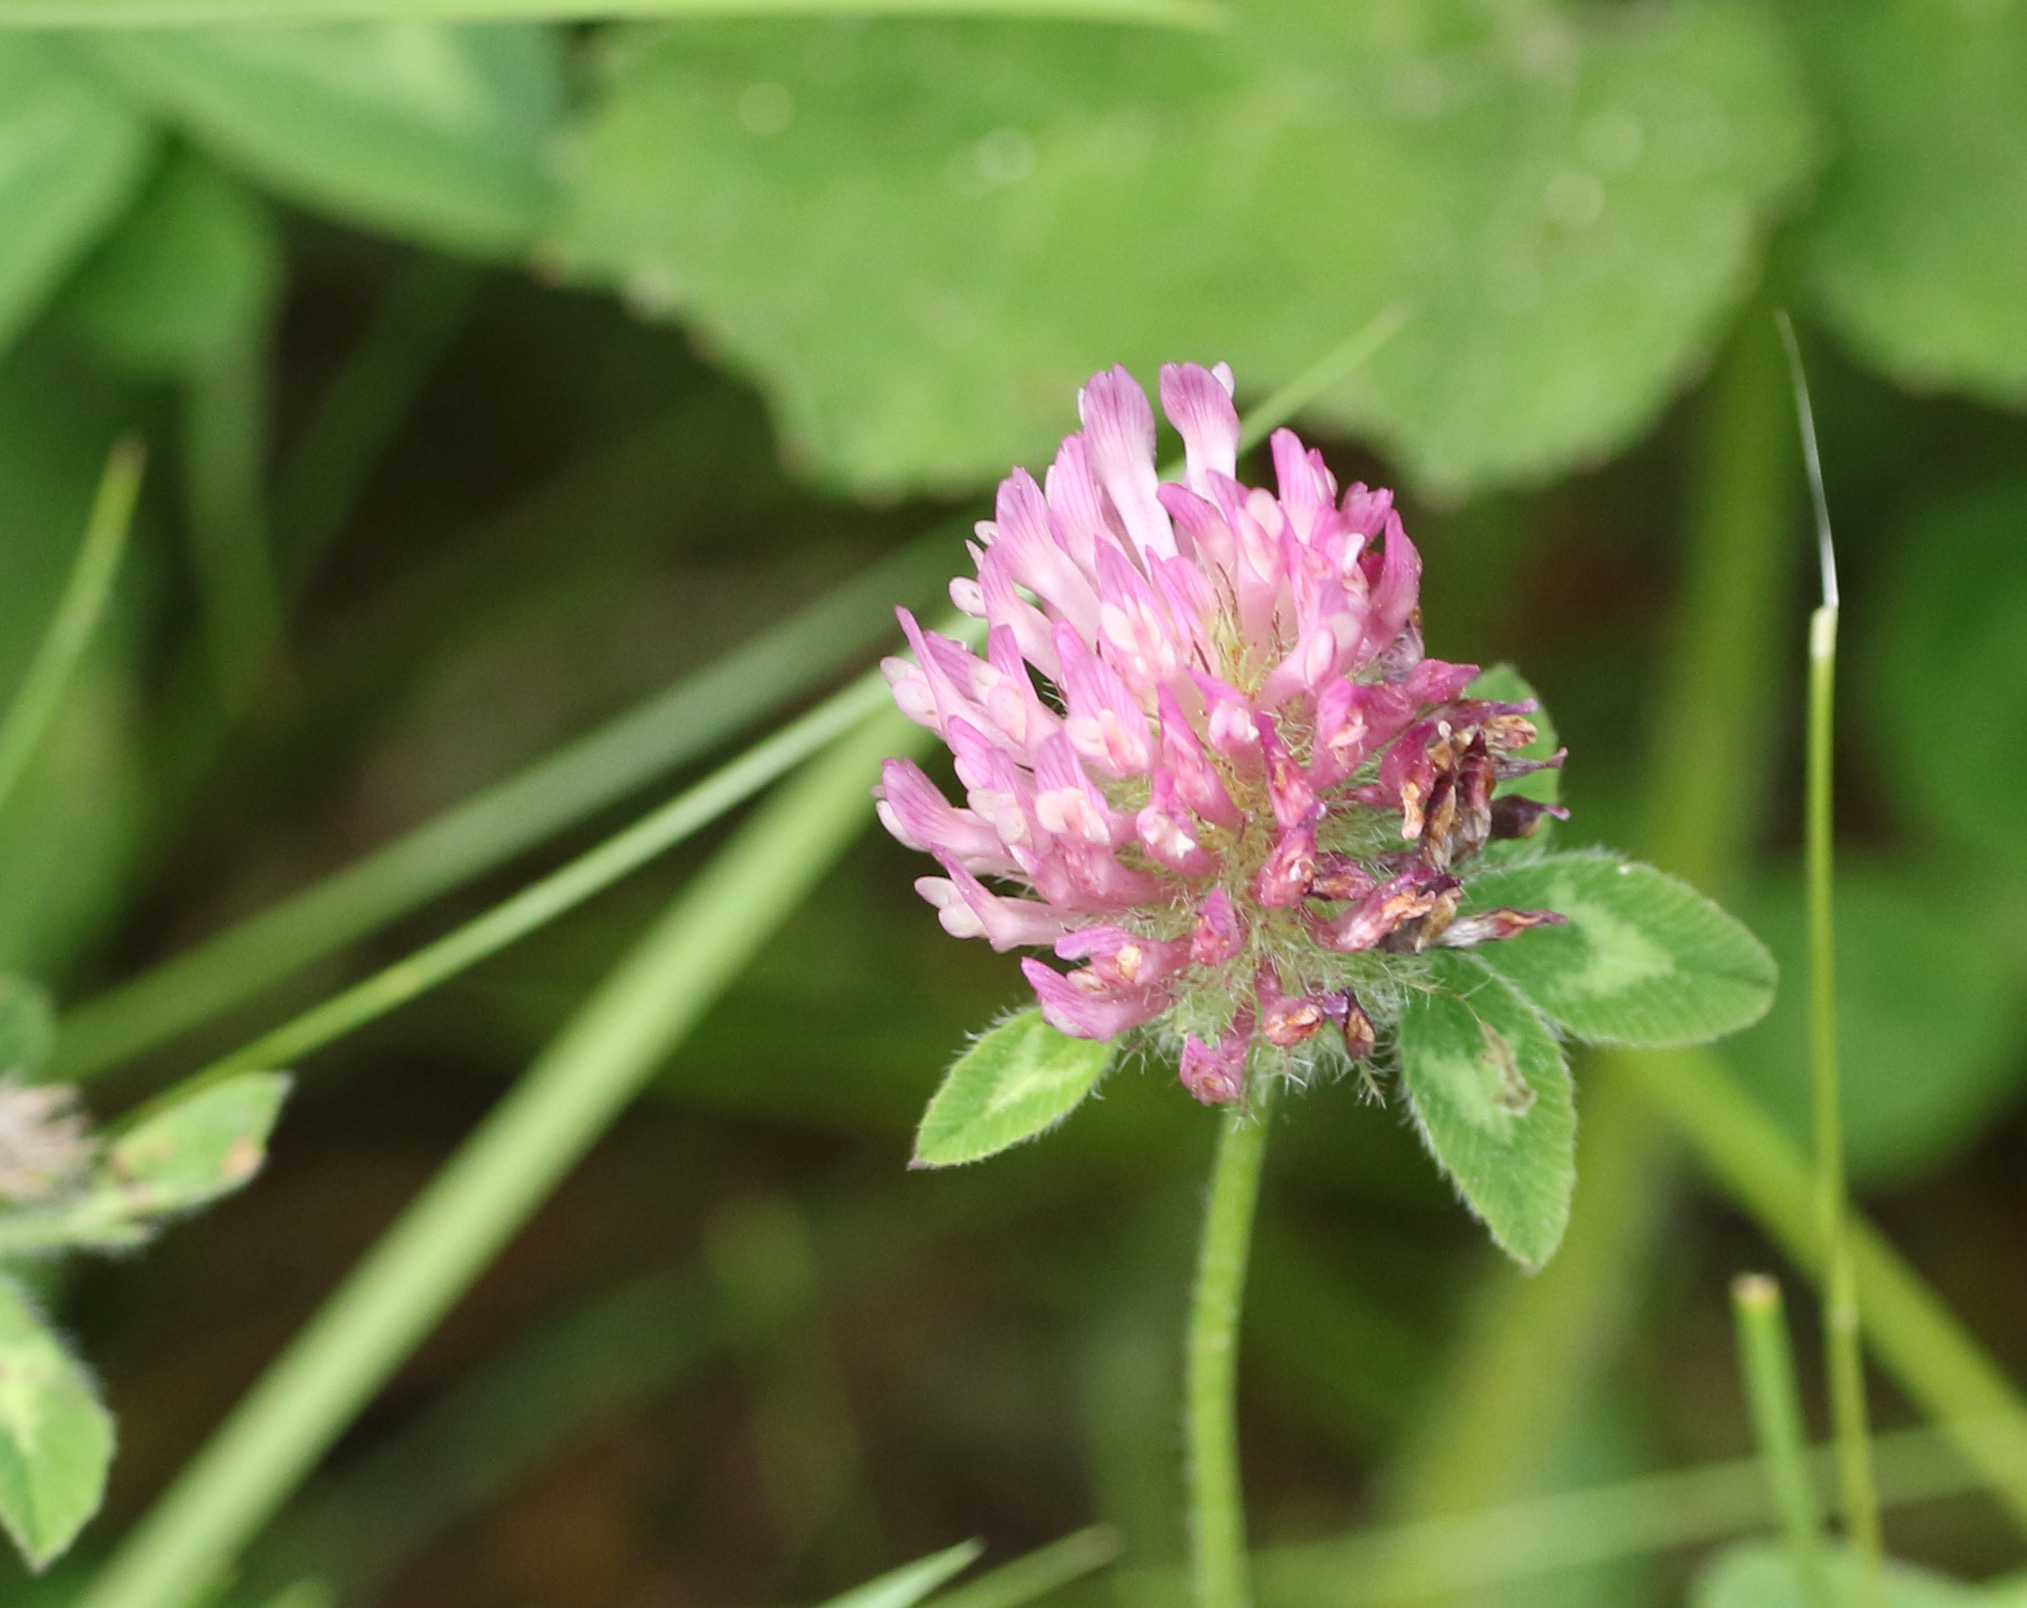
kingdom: Plantae
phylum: Tracheophyta
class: Magnoliopsida
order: Fabales
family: Fabaceae
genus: Trifolium
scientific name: Trifolium pratense
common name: Red clover
